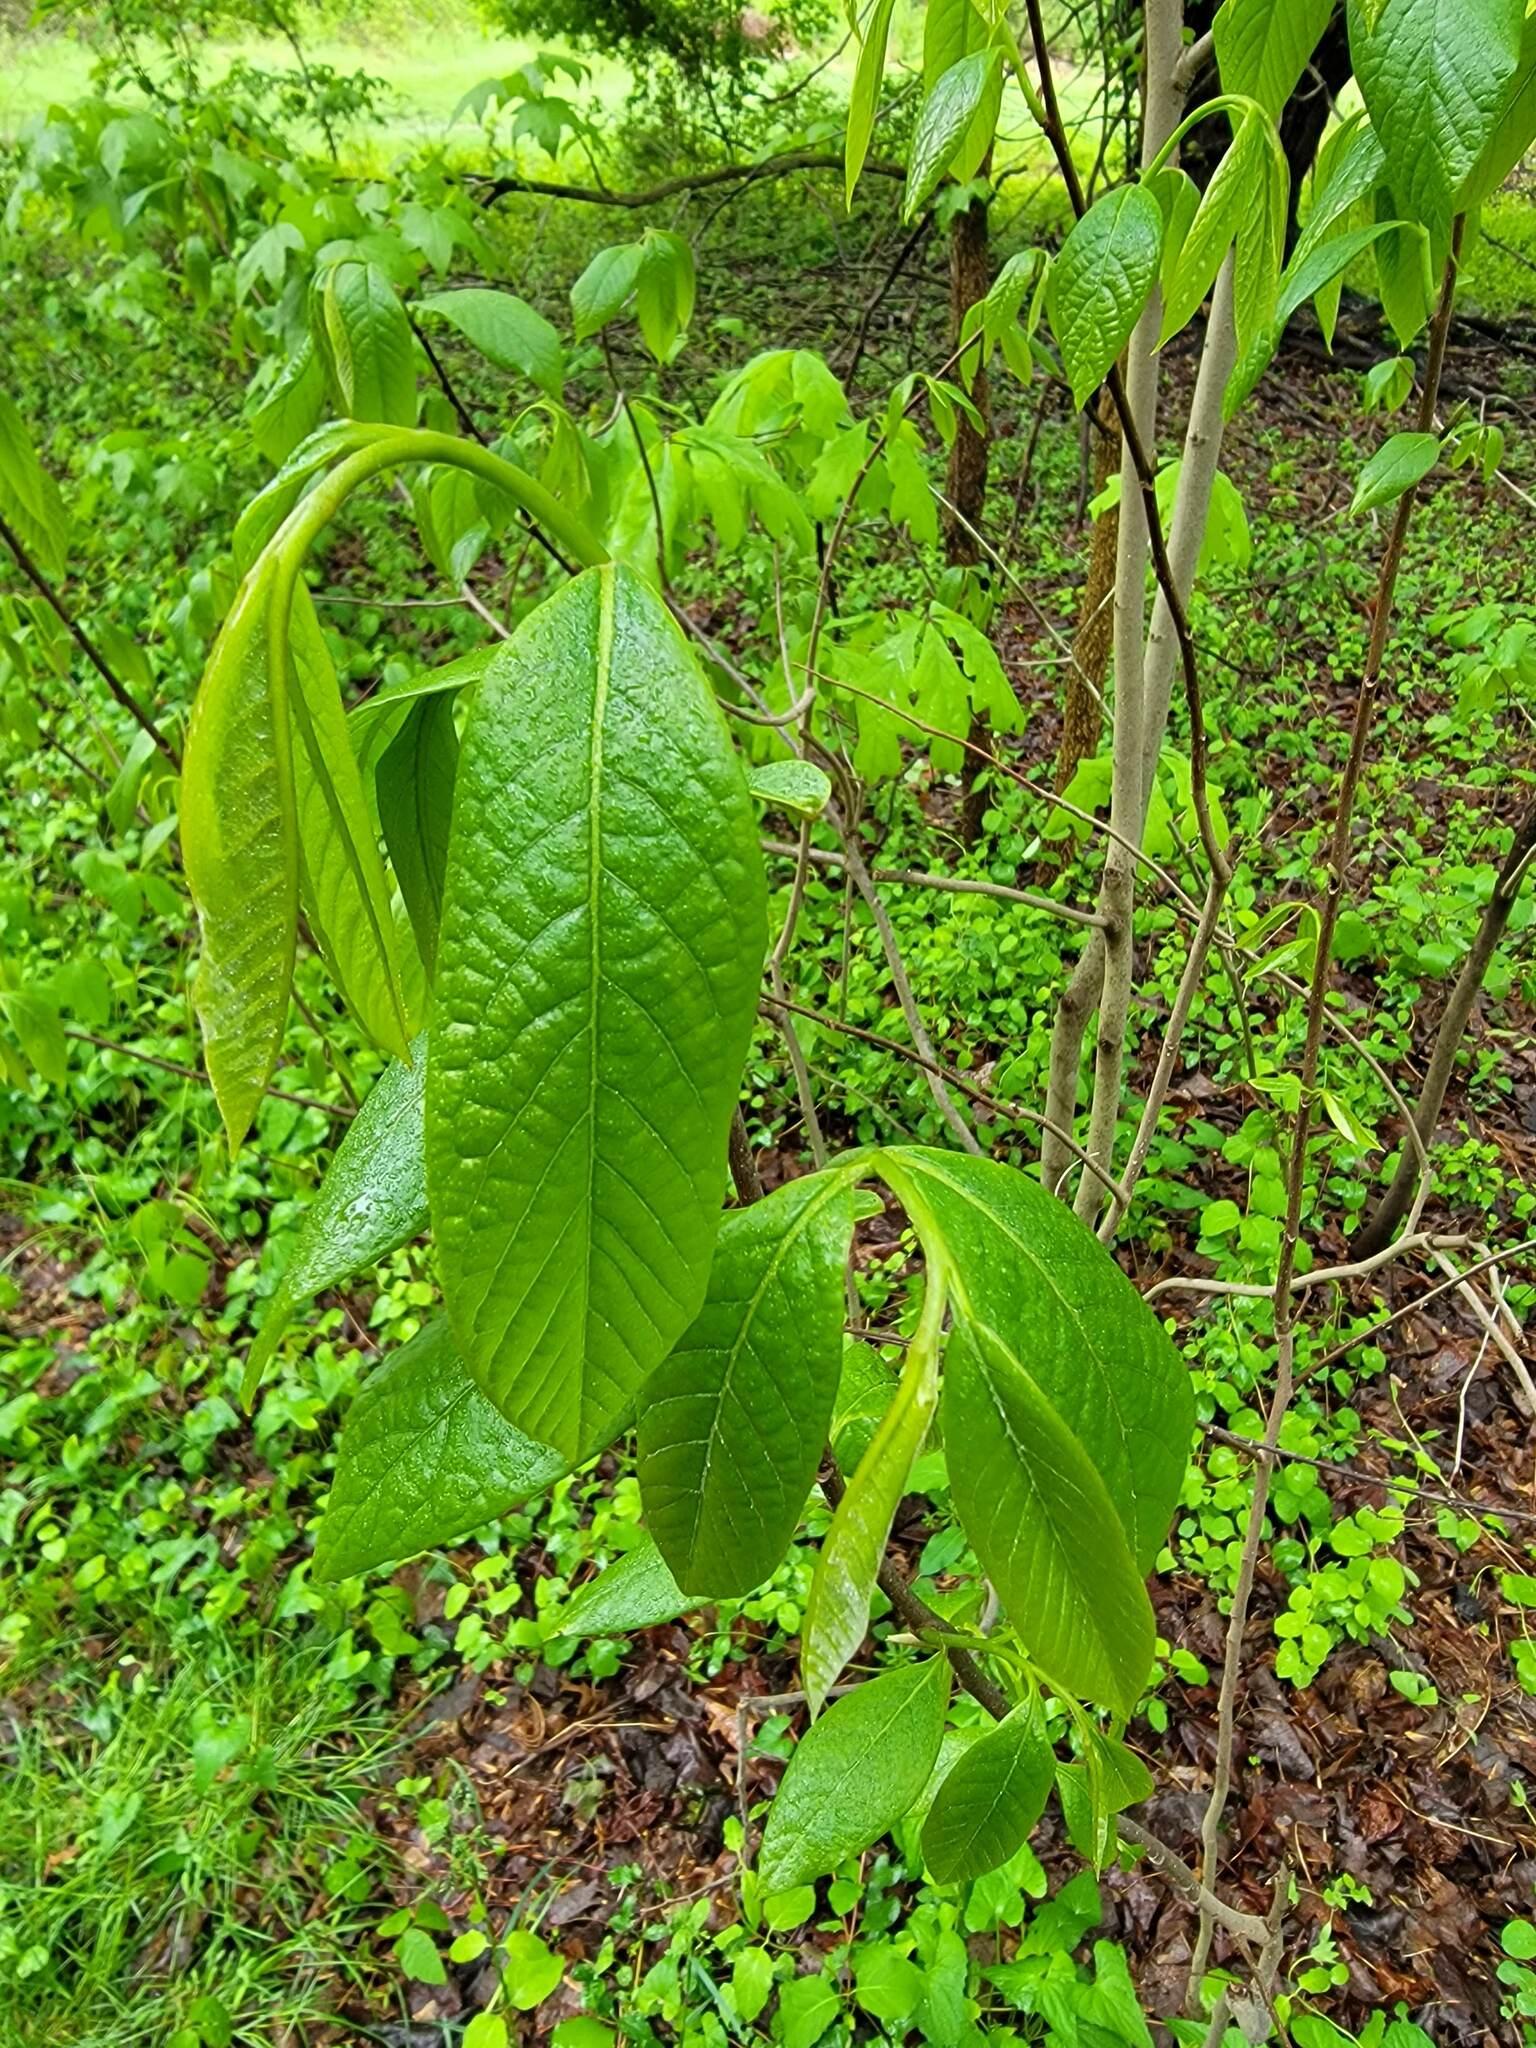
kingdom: Plantae
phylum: Tracheophyta
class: Magnoliopsida
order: Magnoliales
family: Annonaceae
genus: Asimina
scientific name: Asimina triloba
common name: Dog-banana
